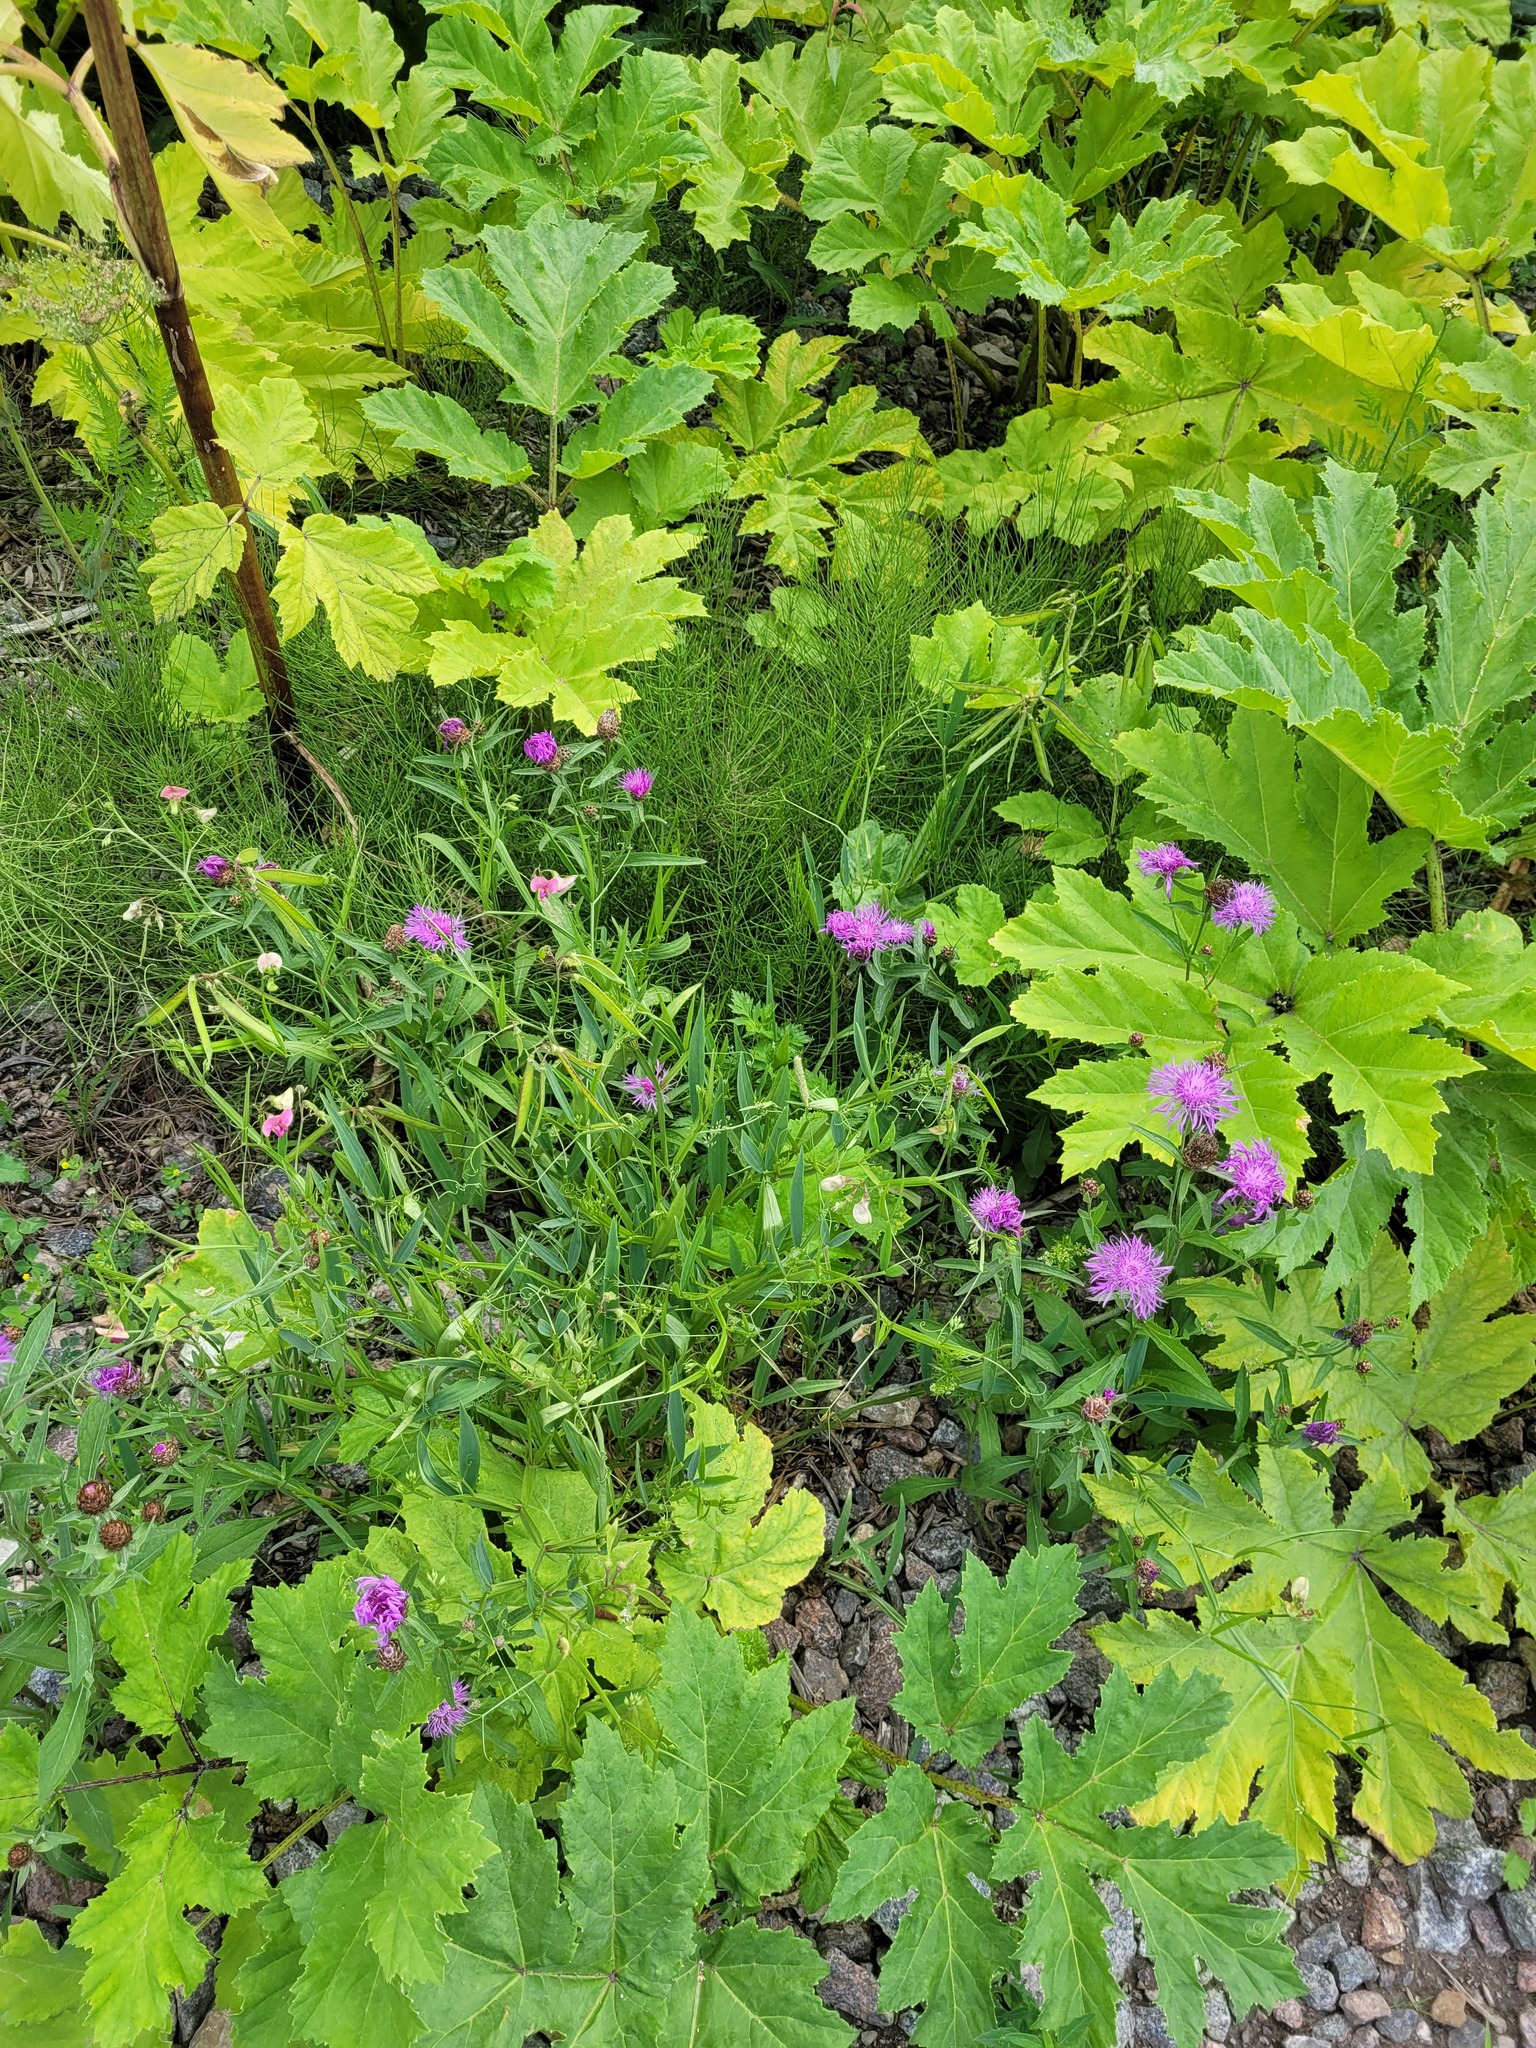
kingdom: Plantae
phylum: Tracheophyta
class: Magnoliopsida
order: Asterales
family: Asteraceae
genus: Centaurea
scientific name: Centaurea jacea
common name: Brown knapweed
